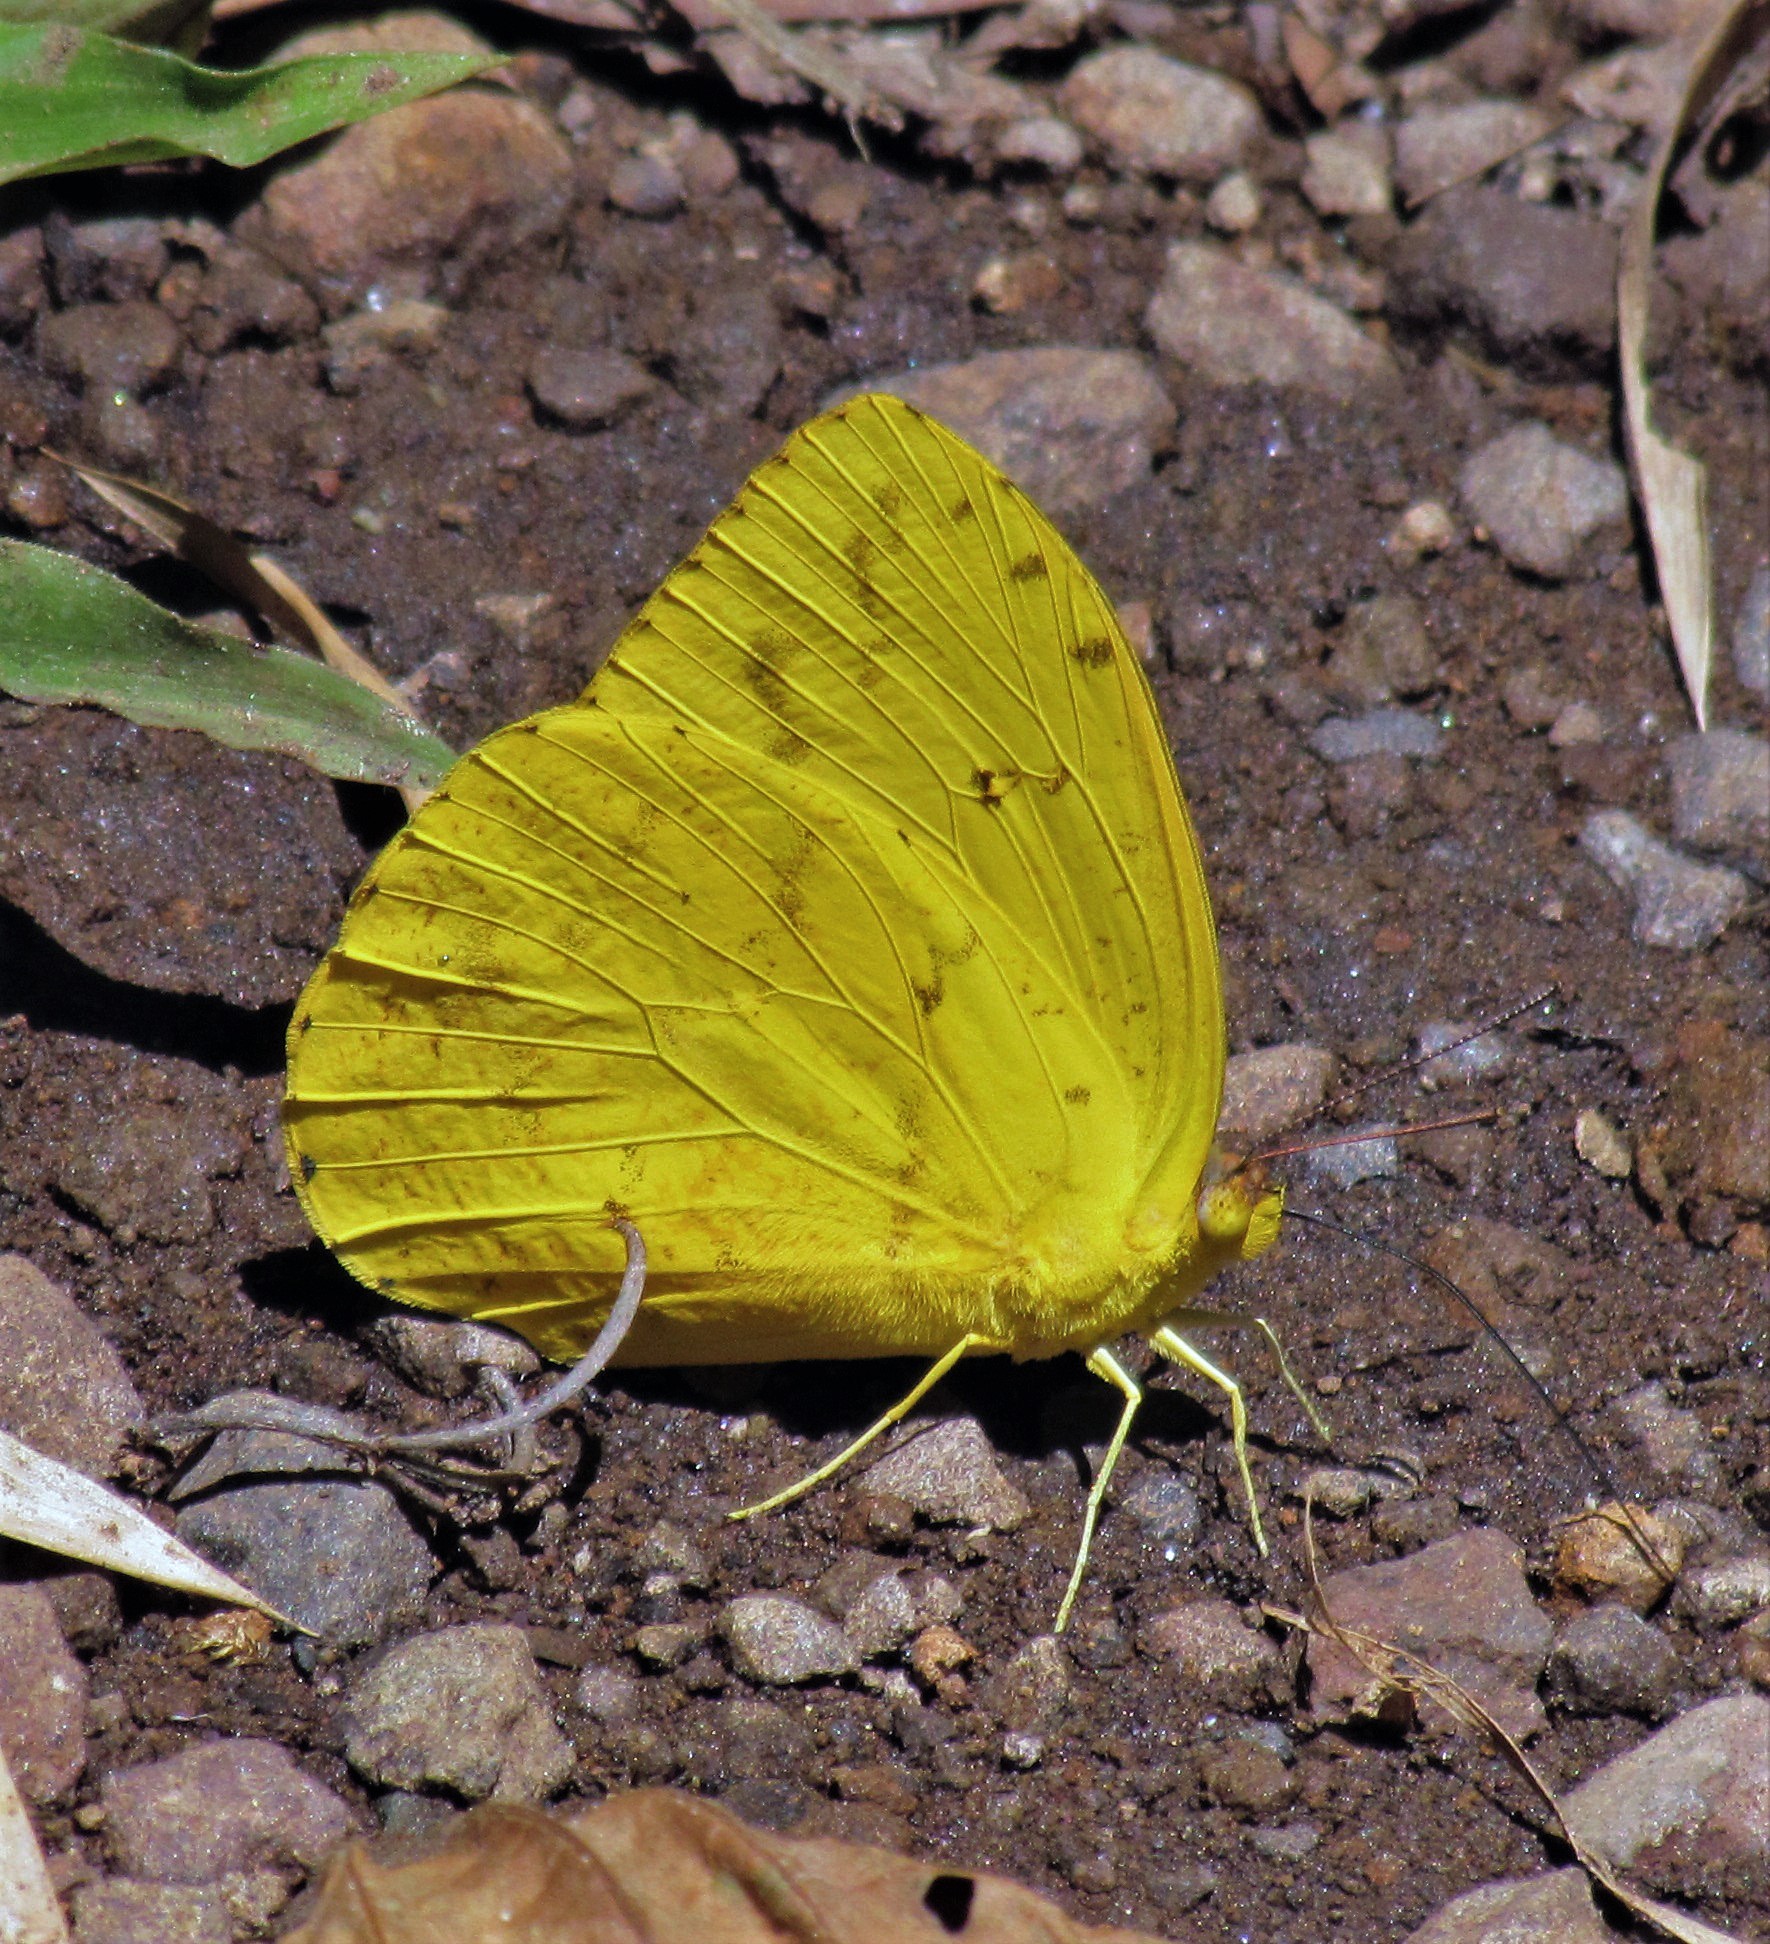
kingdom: Animalia
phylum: Arthropoda
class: Insecta
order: Lepidoptera
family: Pieridae
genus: Phoebis
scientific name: Phoebis argante
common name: Apricot sulphur
